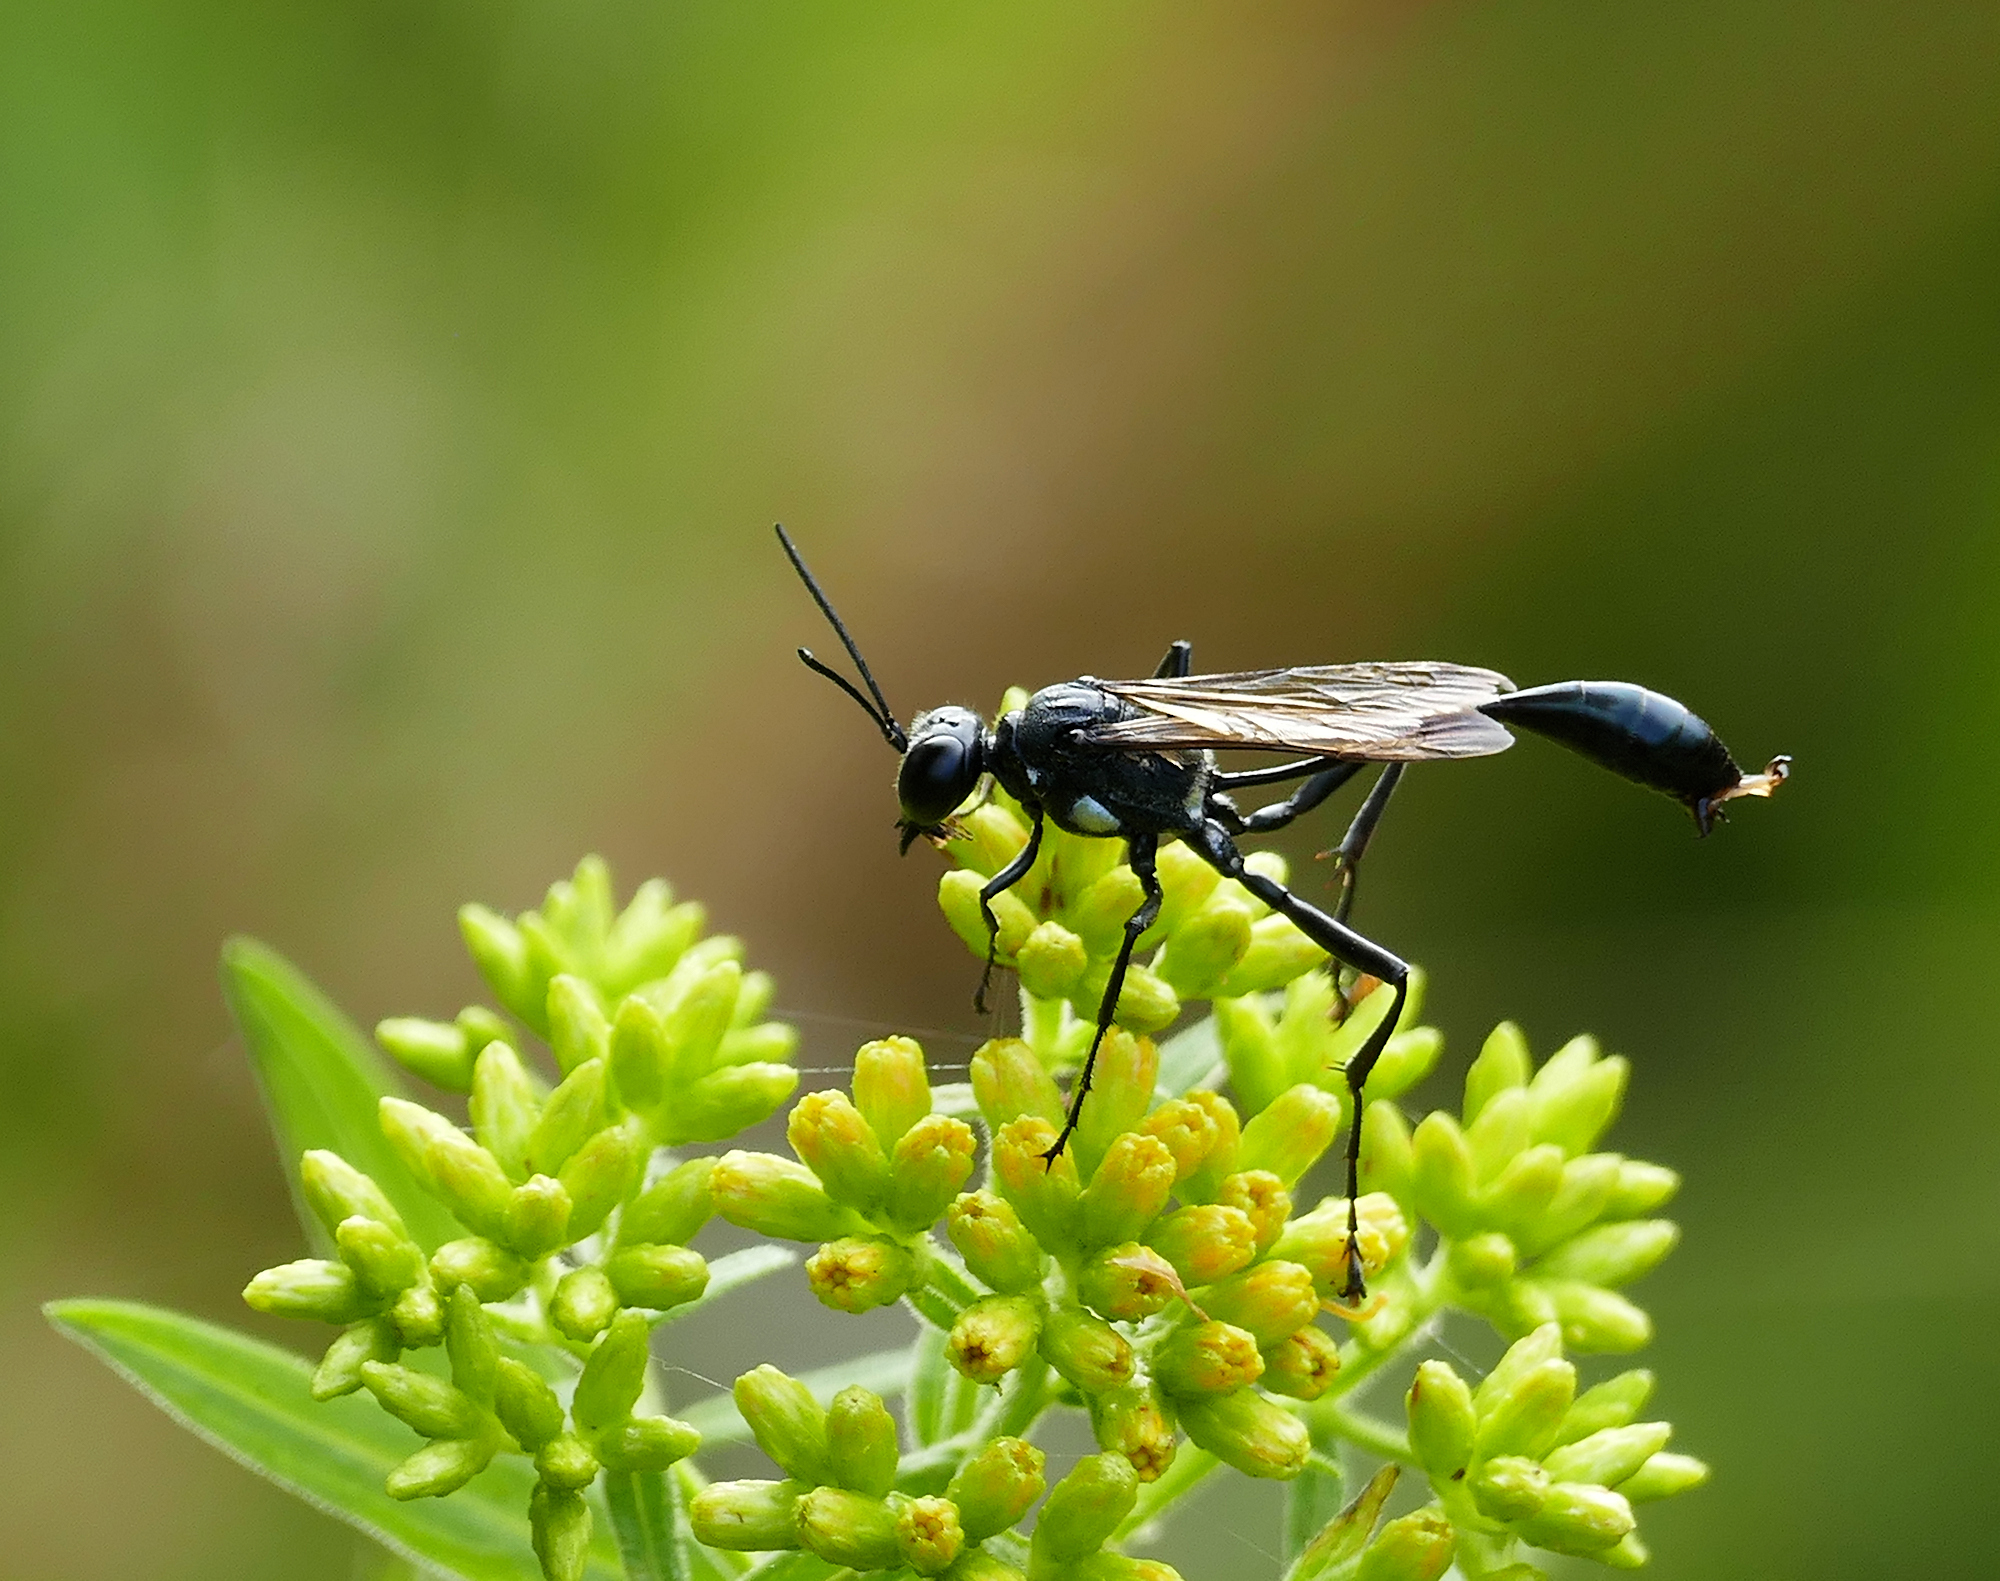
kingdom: Animalia
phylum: Arthropoda
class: Insecta
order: Hymenoptera
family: Sphecidae
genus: Eremnophila
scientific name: Eremnophila aureonotata
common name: Gold-marked thread-waisted wasp
